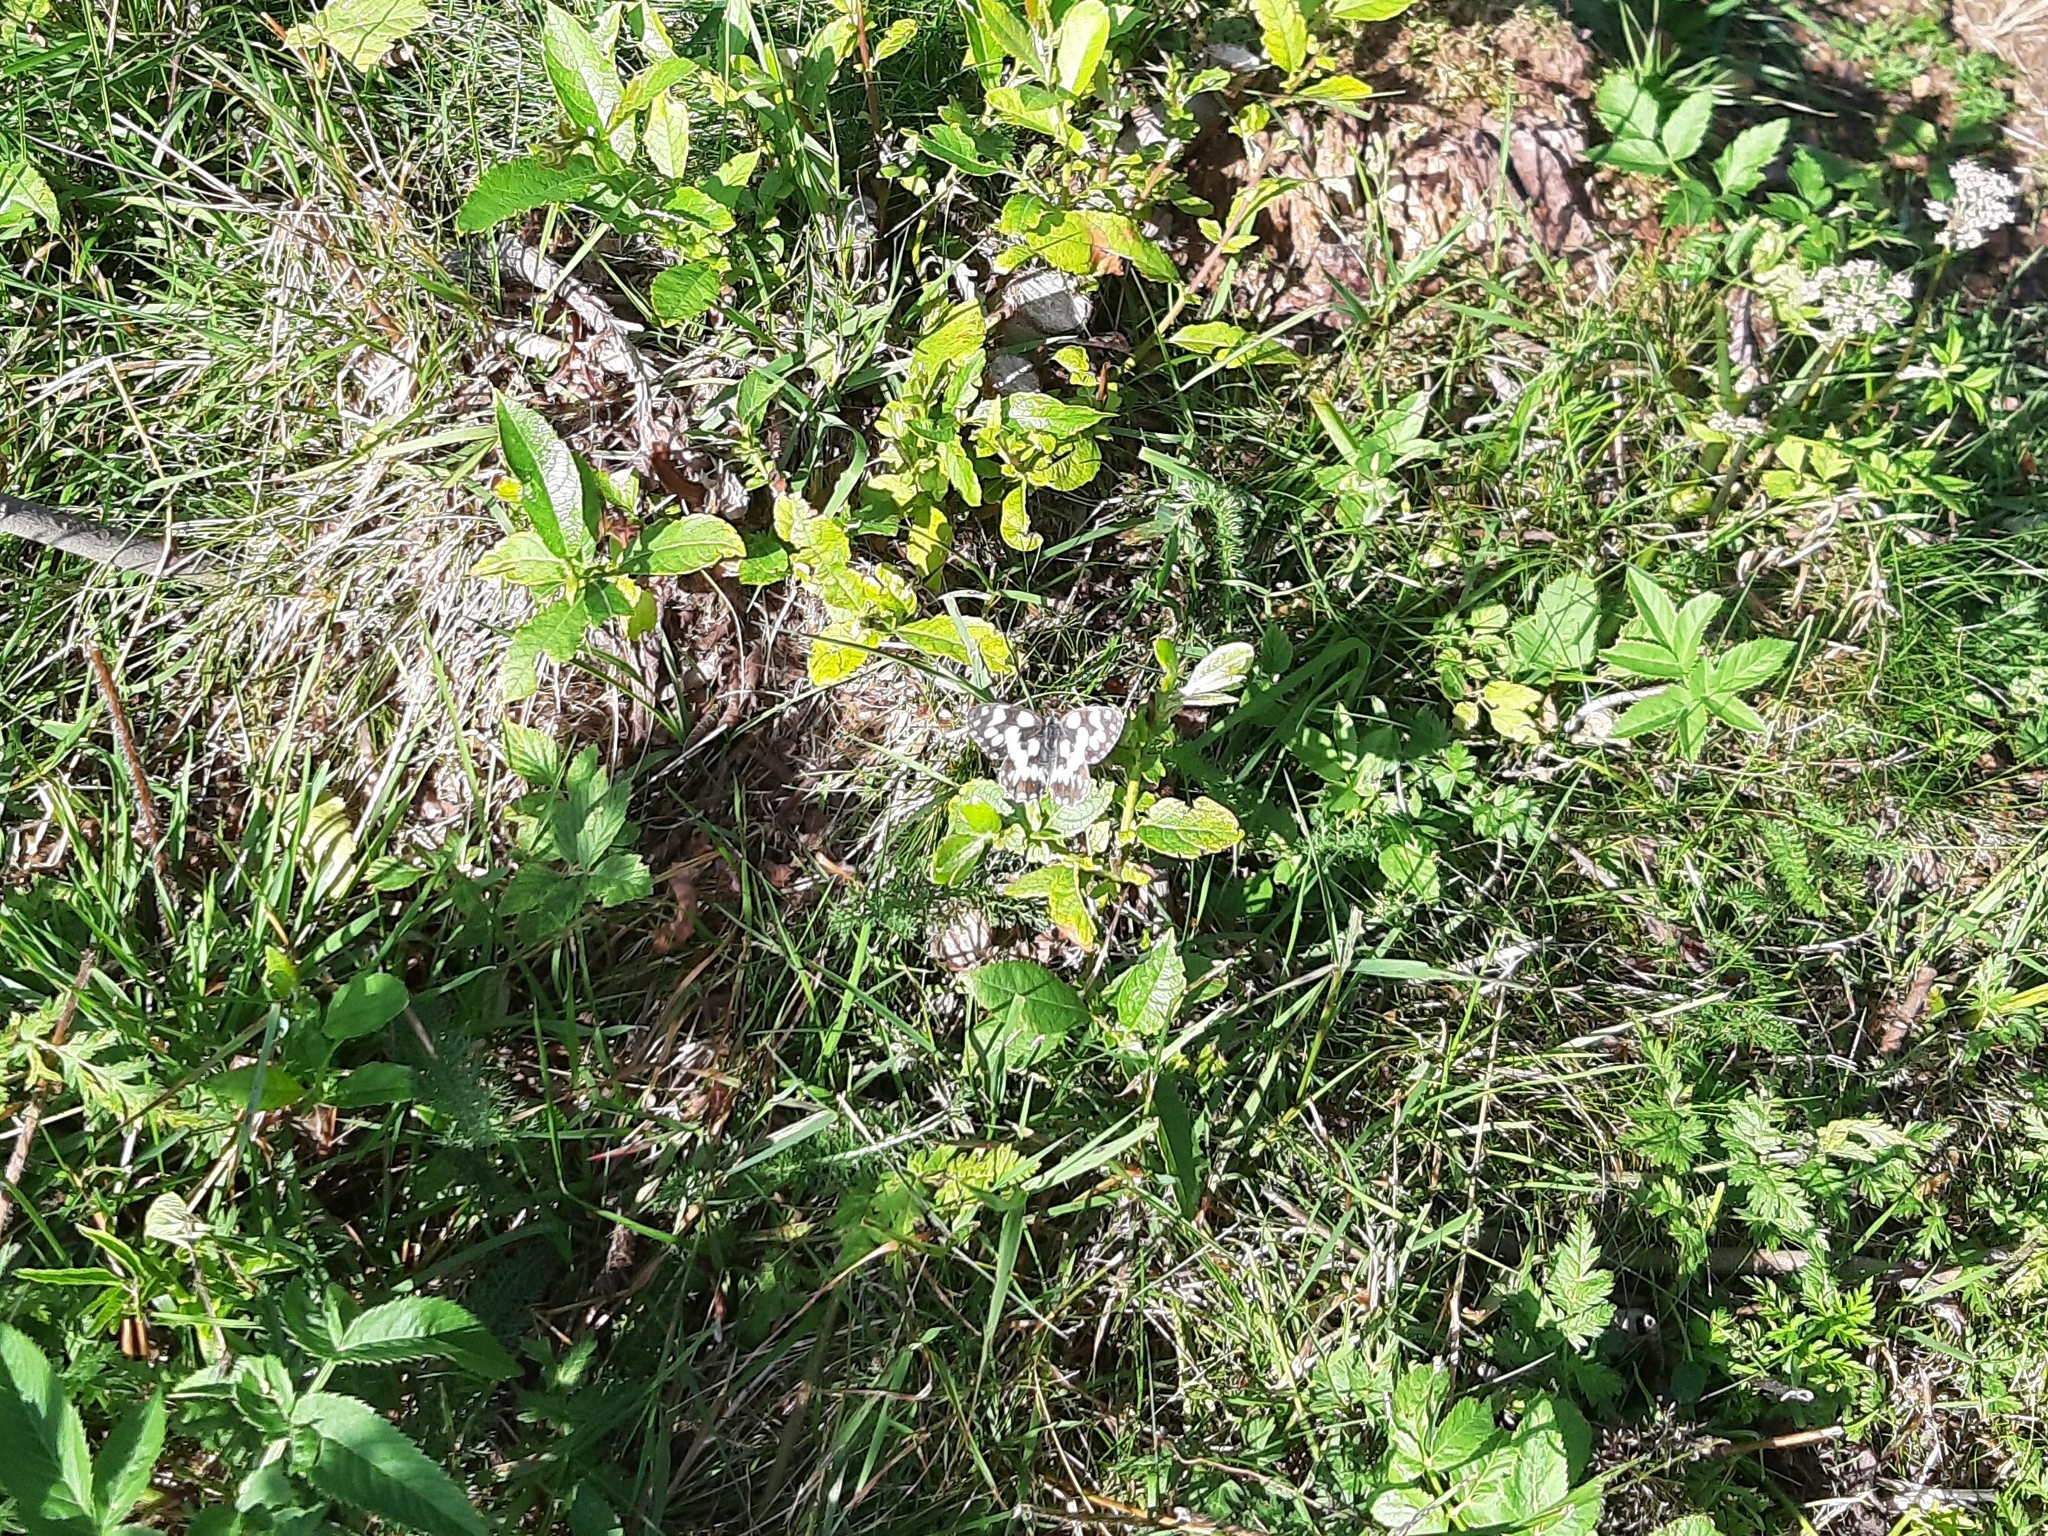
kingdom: Animalia
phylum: Arthropoda
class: Insecta
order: Lepidoptera
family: Nymphalidae
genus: Melanargia
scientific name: Melanargia galathea
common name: Marbled white
